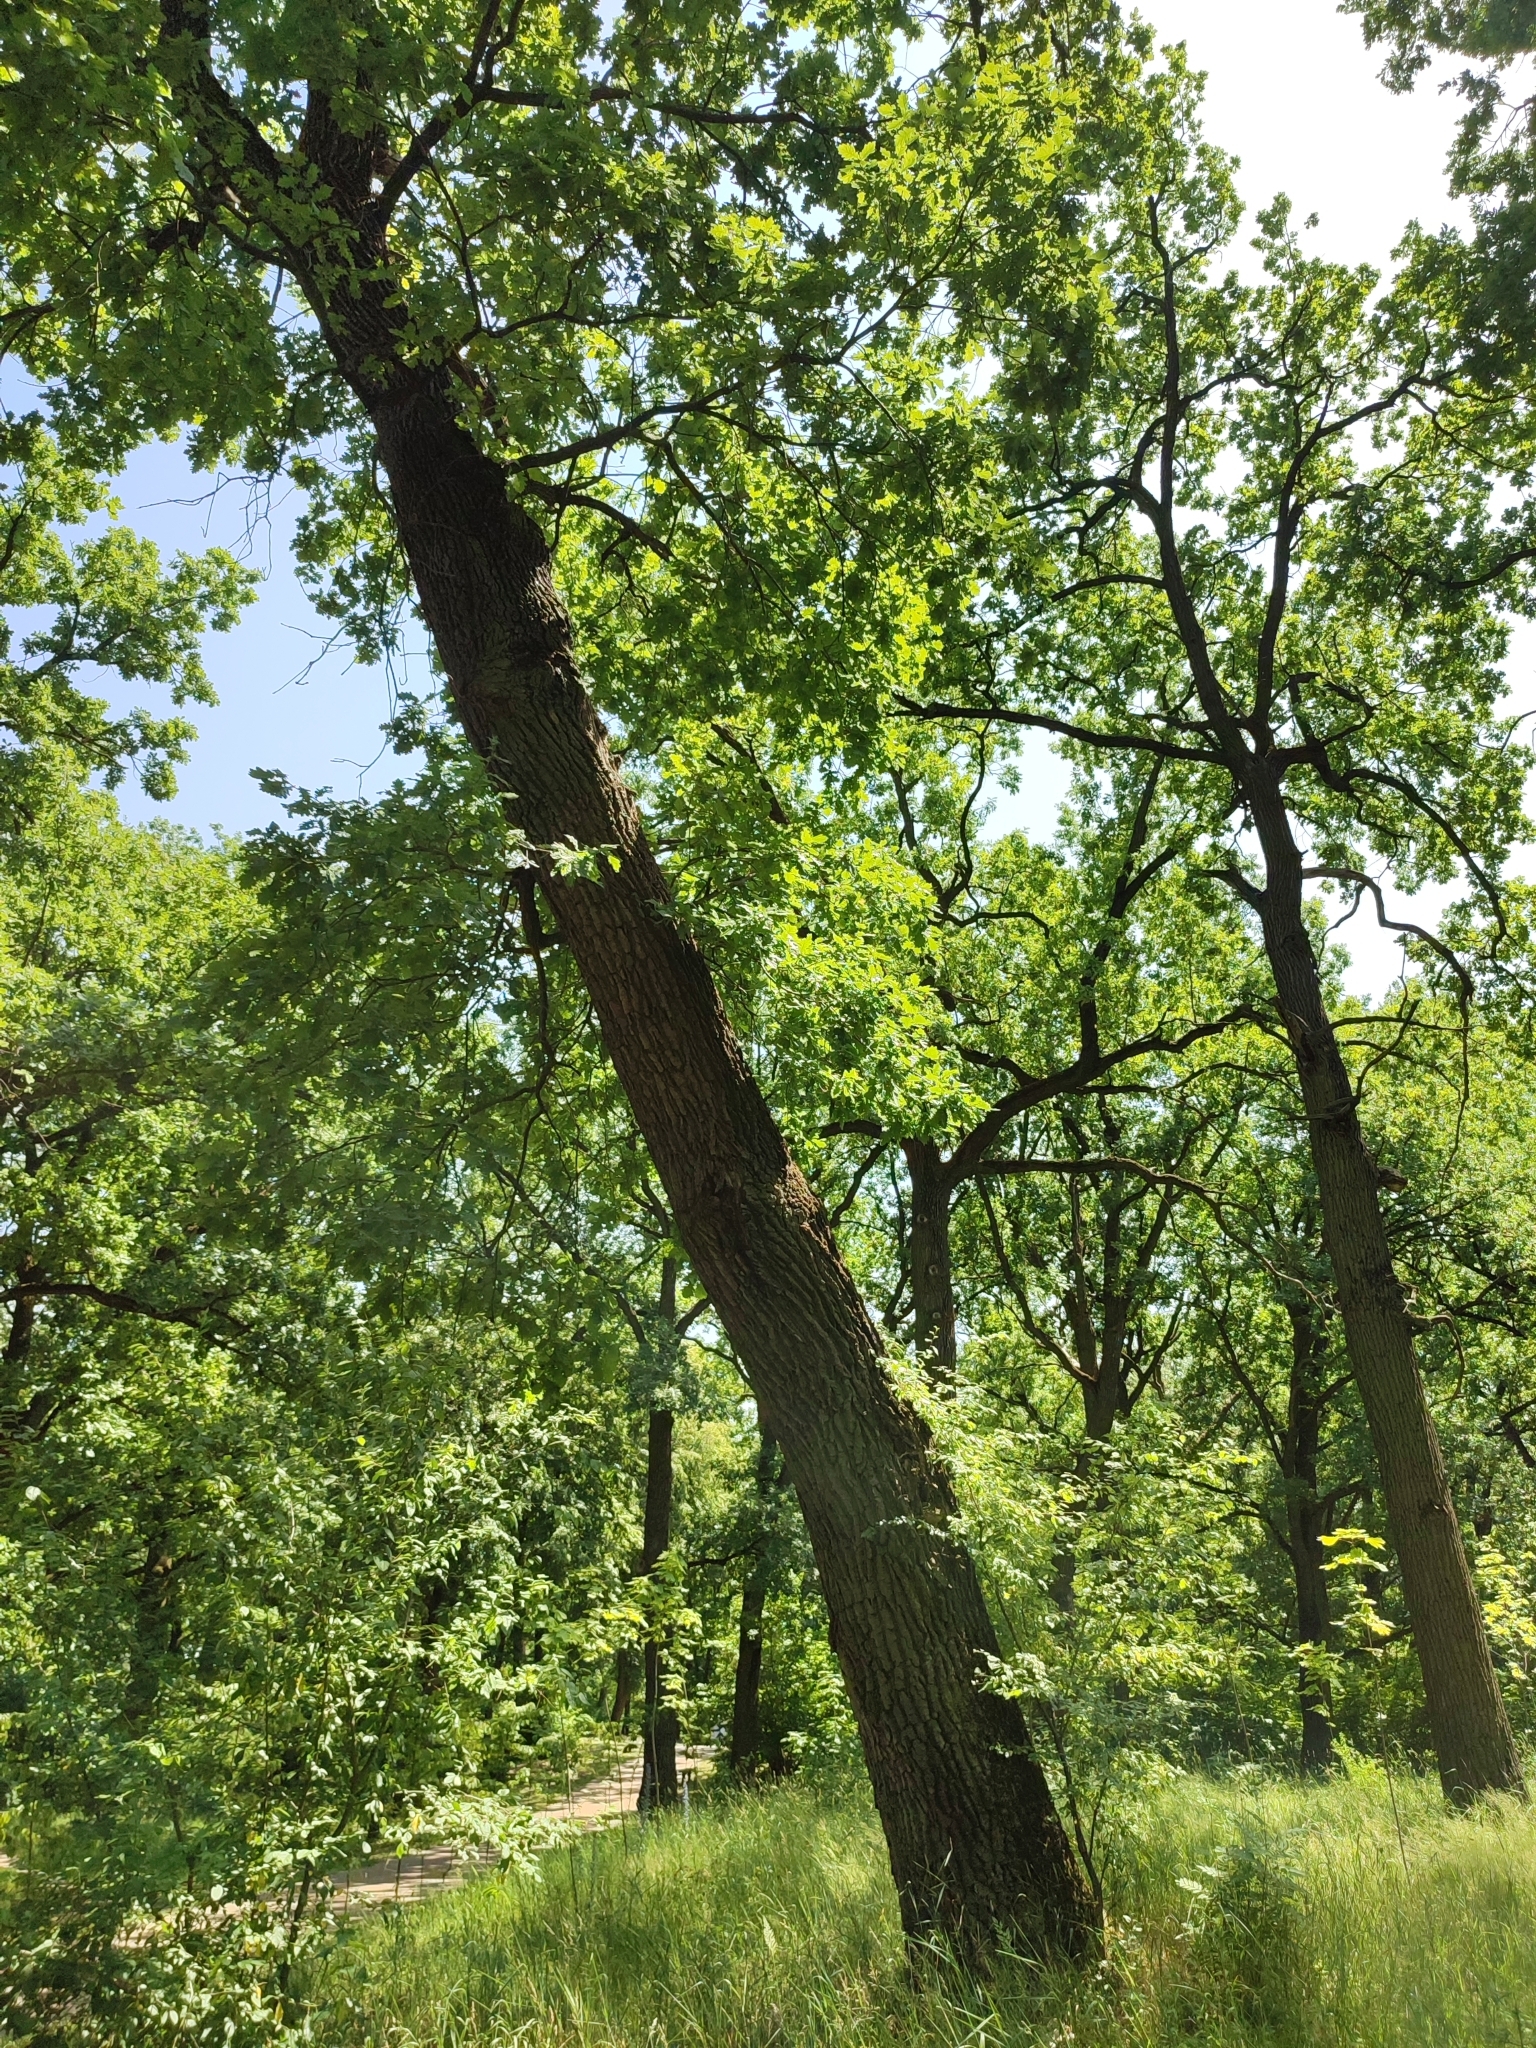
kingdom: Plantae
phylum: Tracheophyta
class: Magnoliopsida
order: Fagales
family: Fagaceae
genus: Quercus
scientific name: Quercus robur
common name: Pedunculate oak
